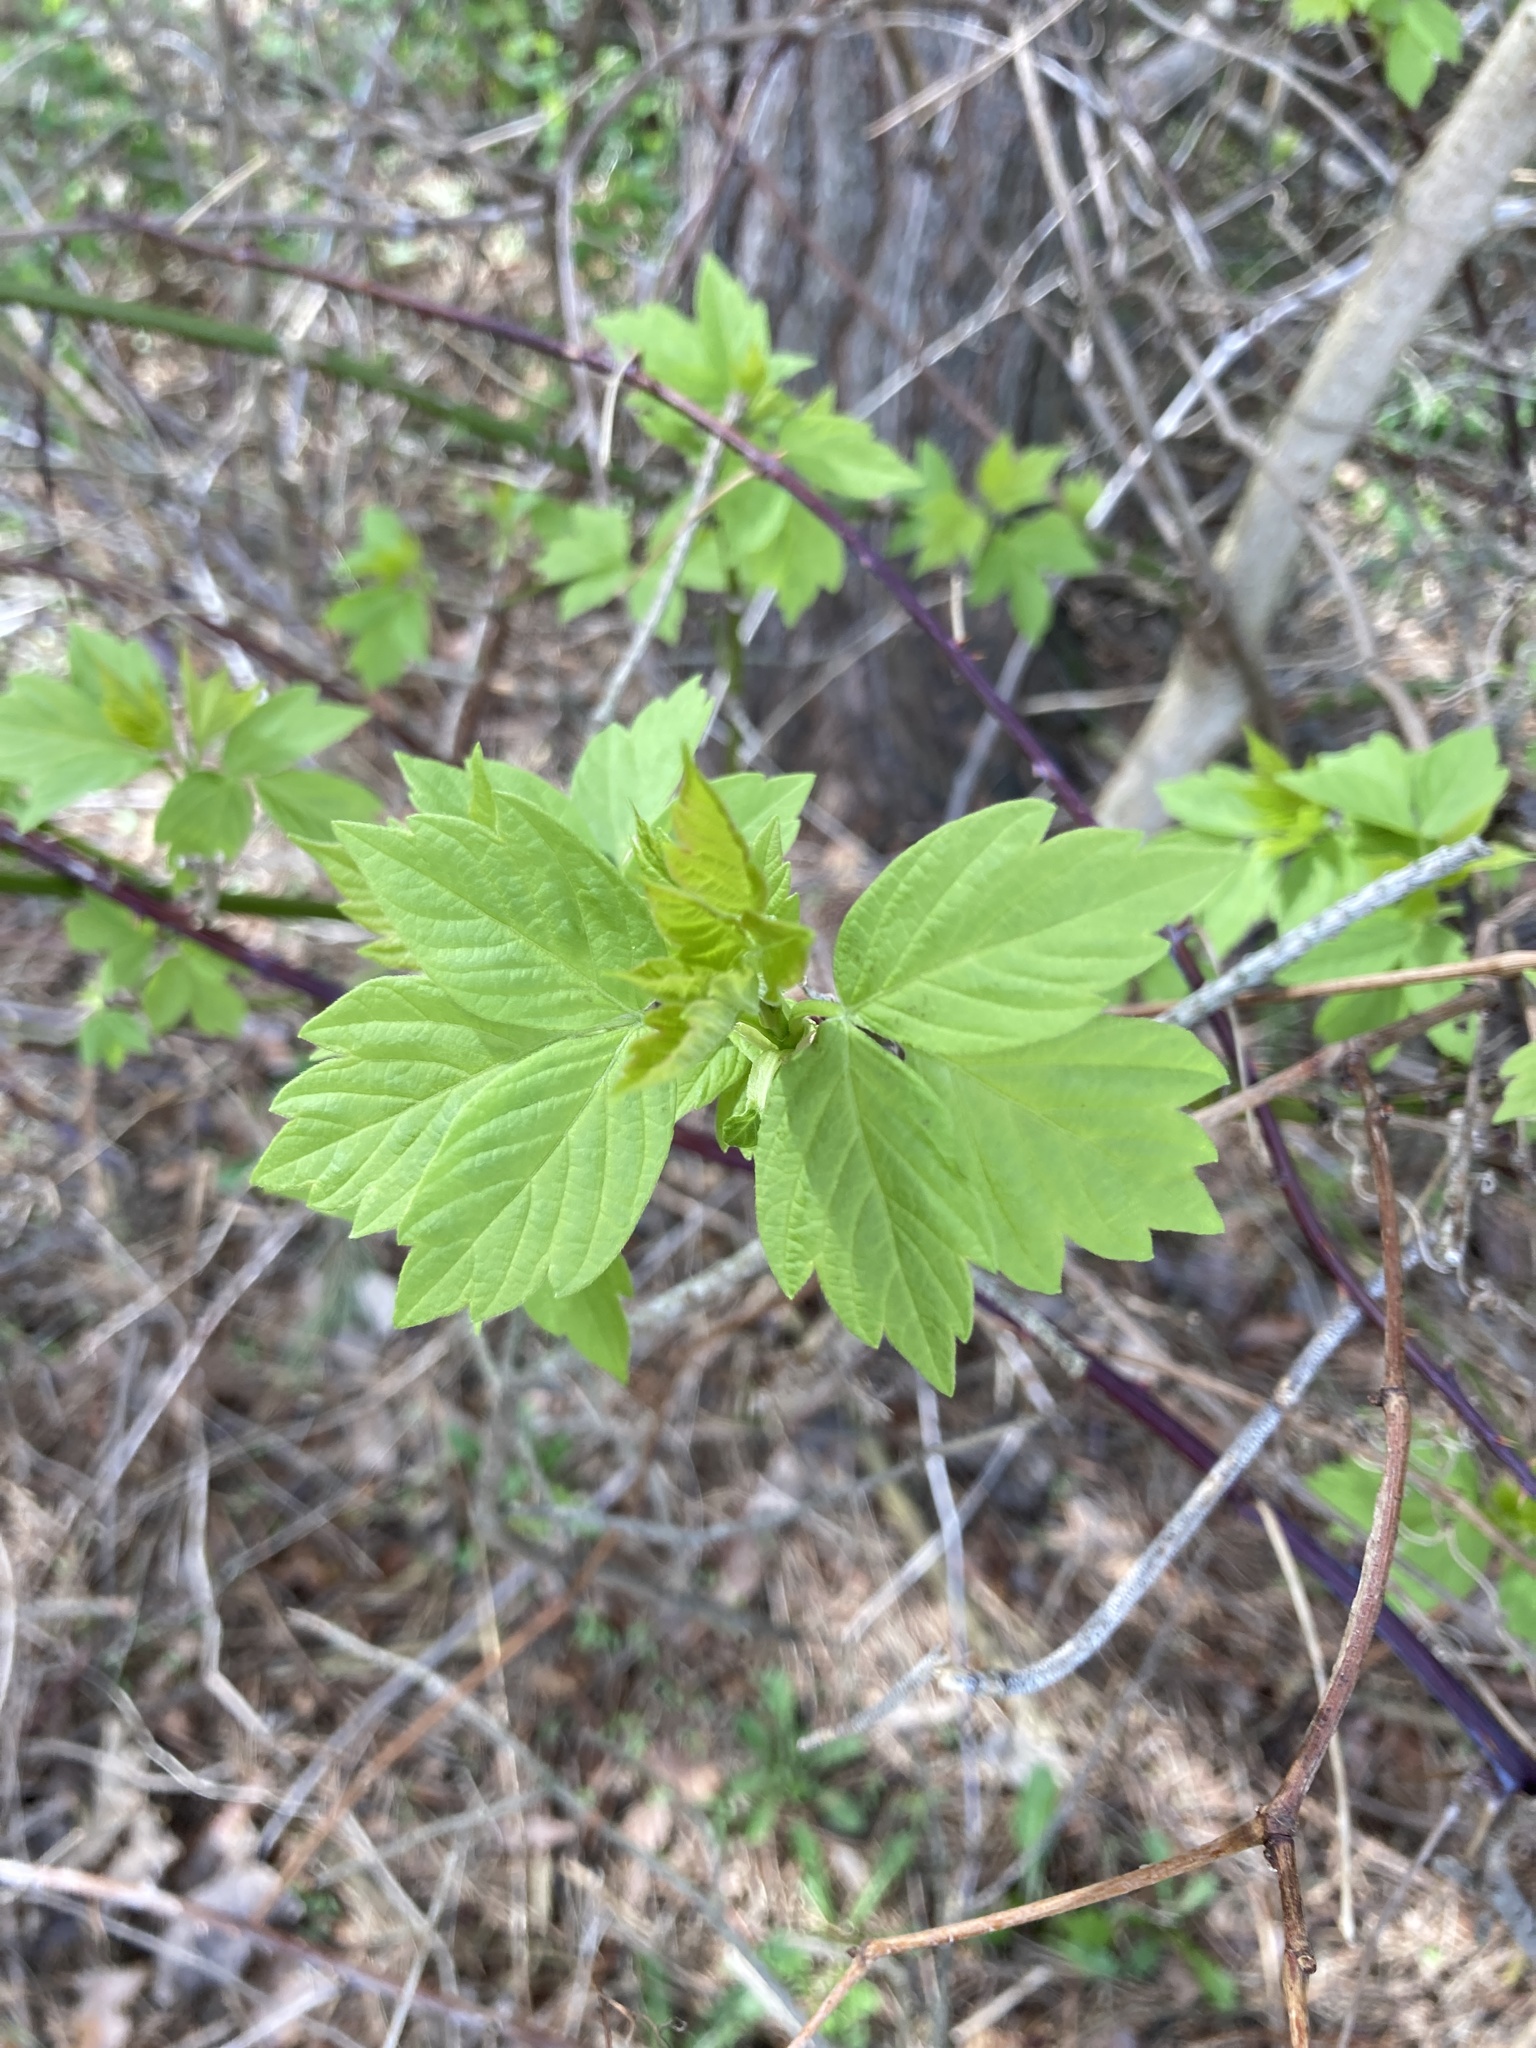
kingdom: Plantae
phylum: Tracheophyta
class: Magnoliopsida
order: Sapindales
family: Sapindaceae
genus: Acer
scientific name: Acer negundo
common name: Ashleaf maple
